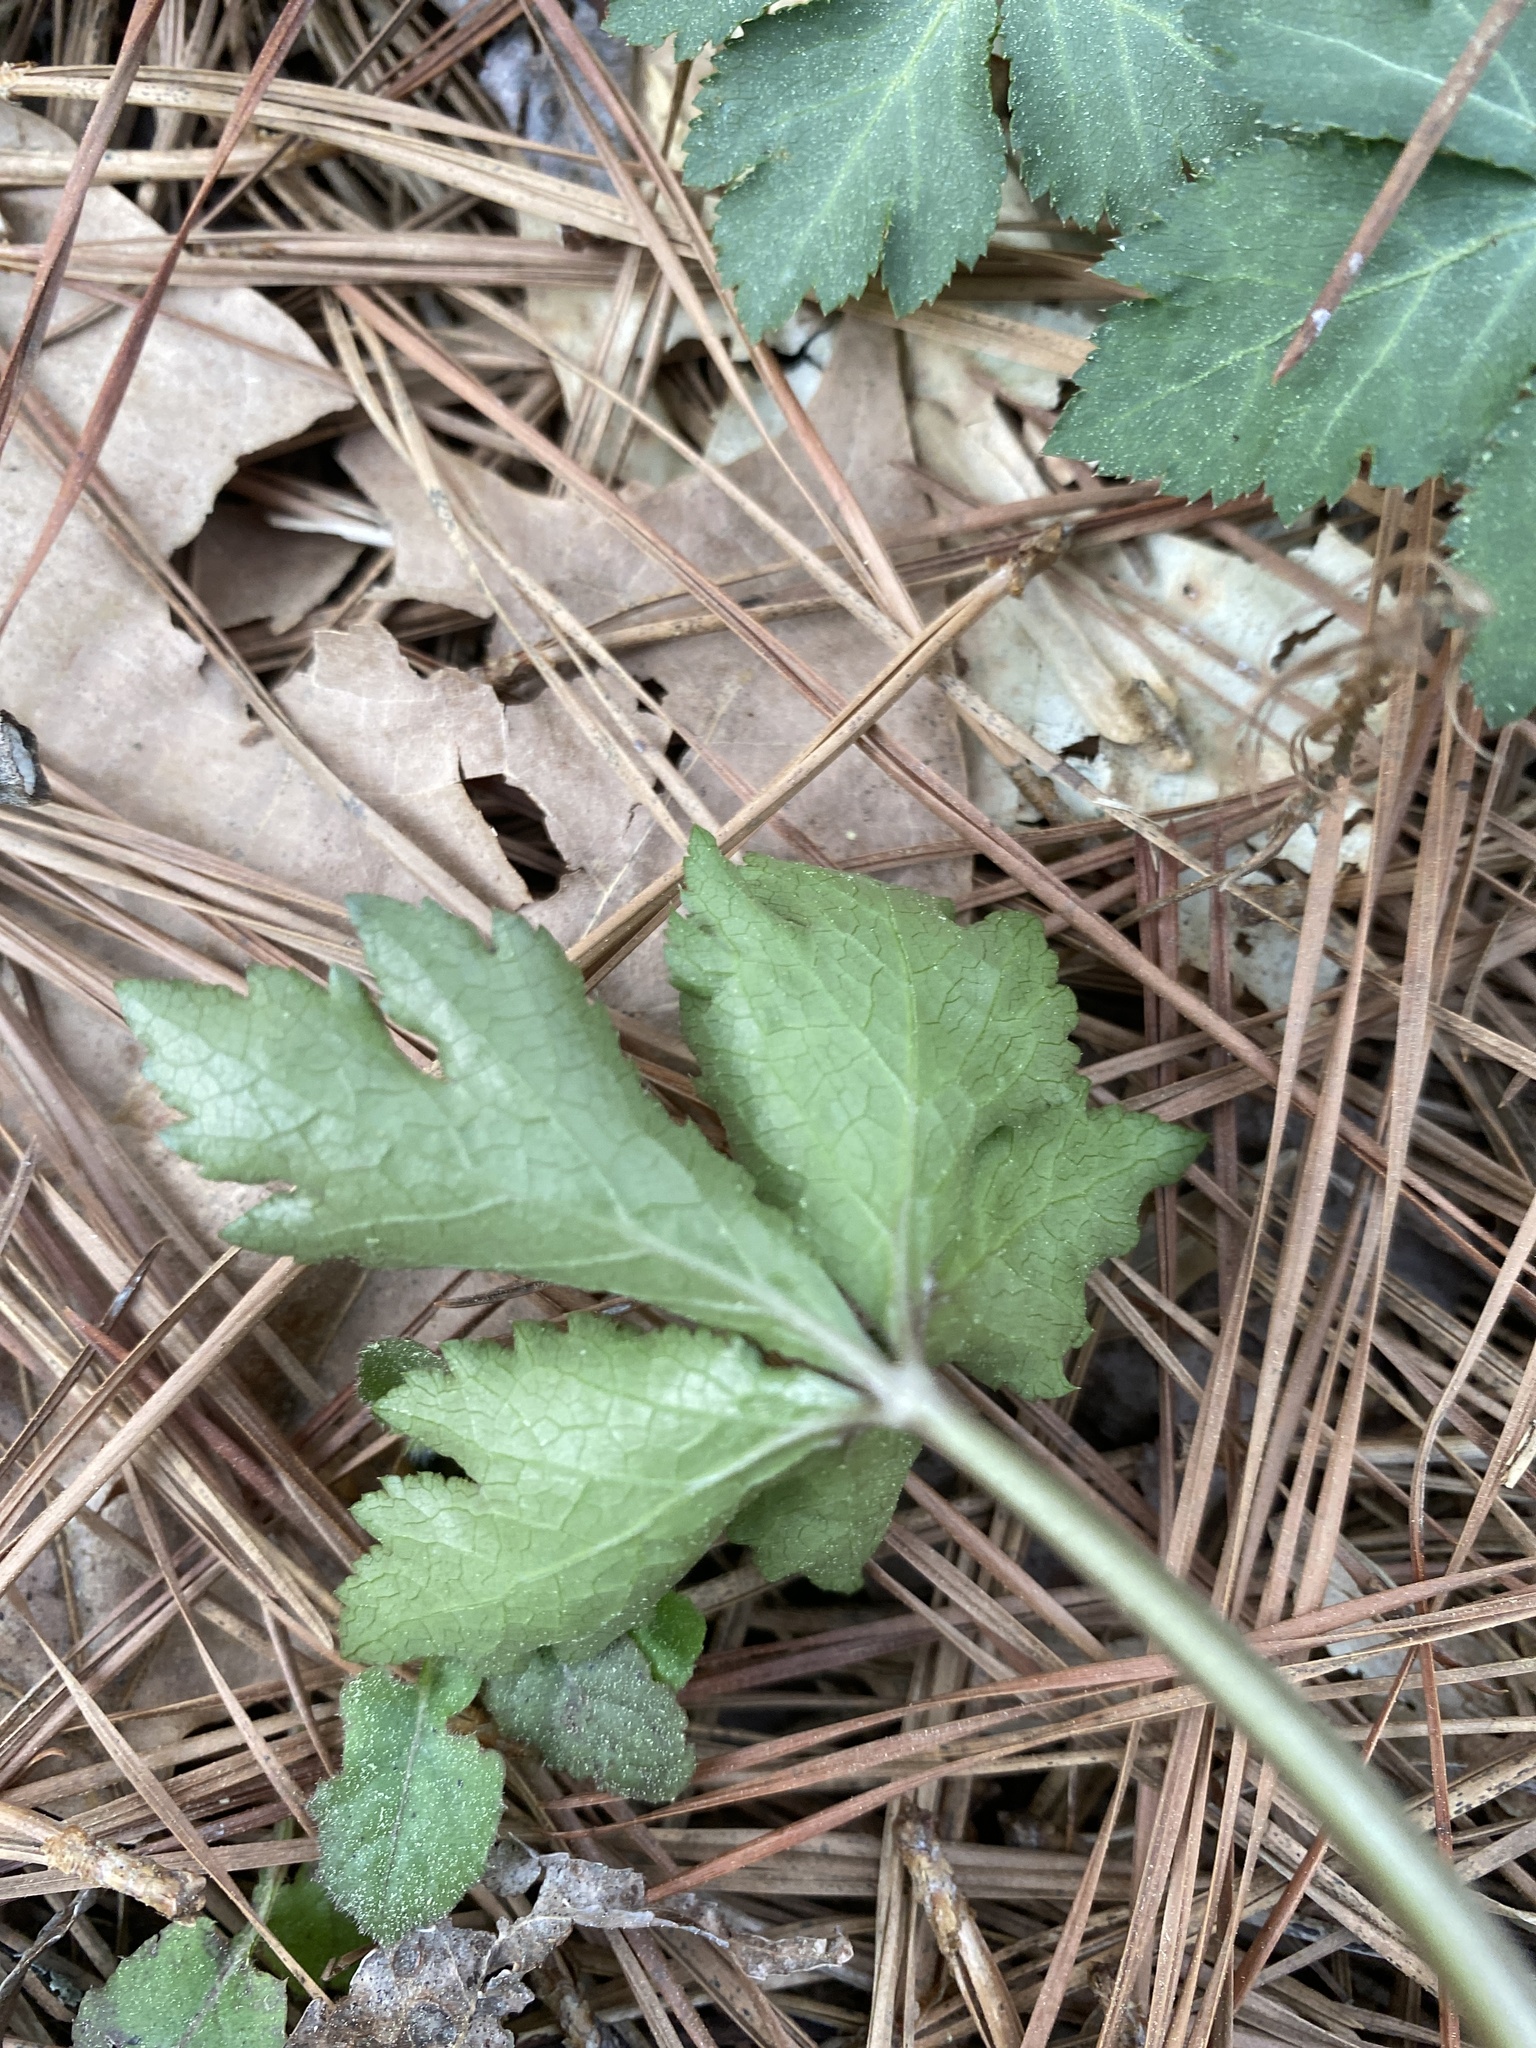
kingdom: Plantae
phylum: Tracheophyta
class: Magnoliopsida
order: Apiales
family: Apiaceae
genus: Sanicula
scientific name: Sanicula canadensis
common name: Canada sanicle
